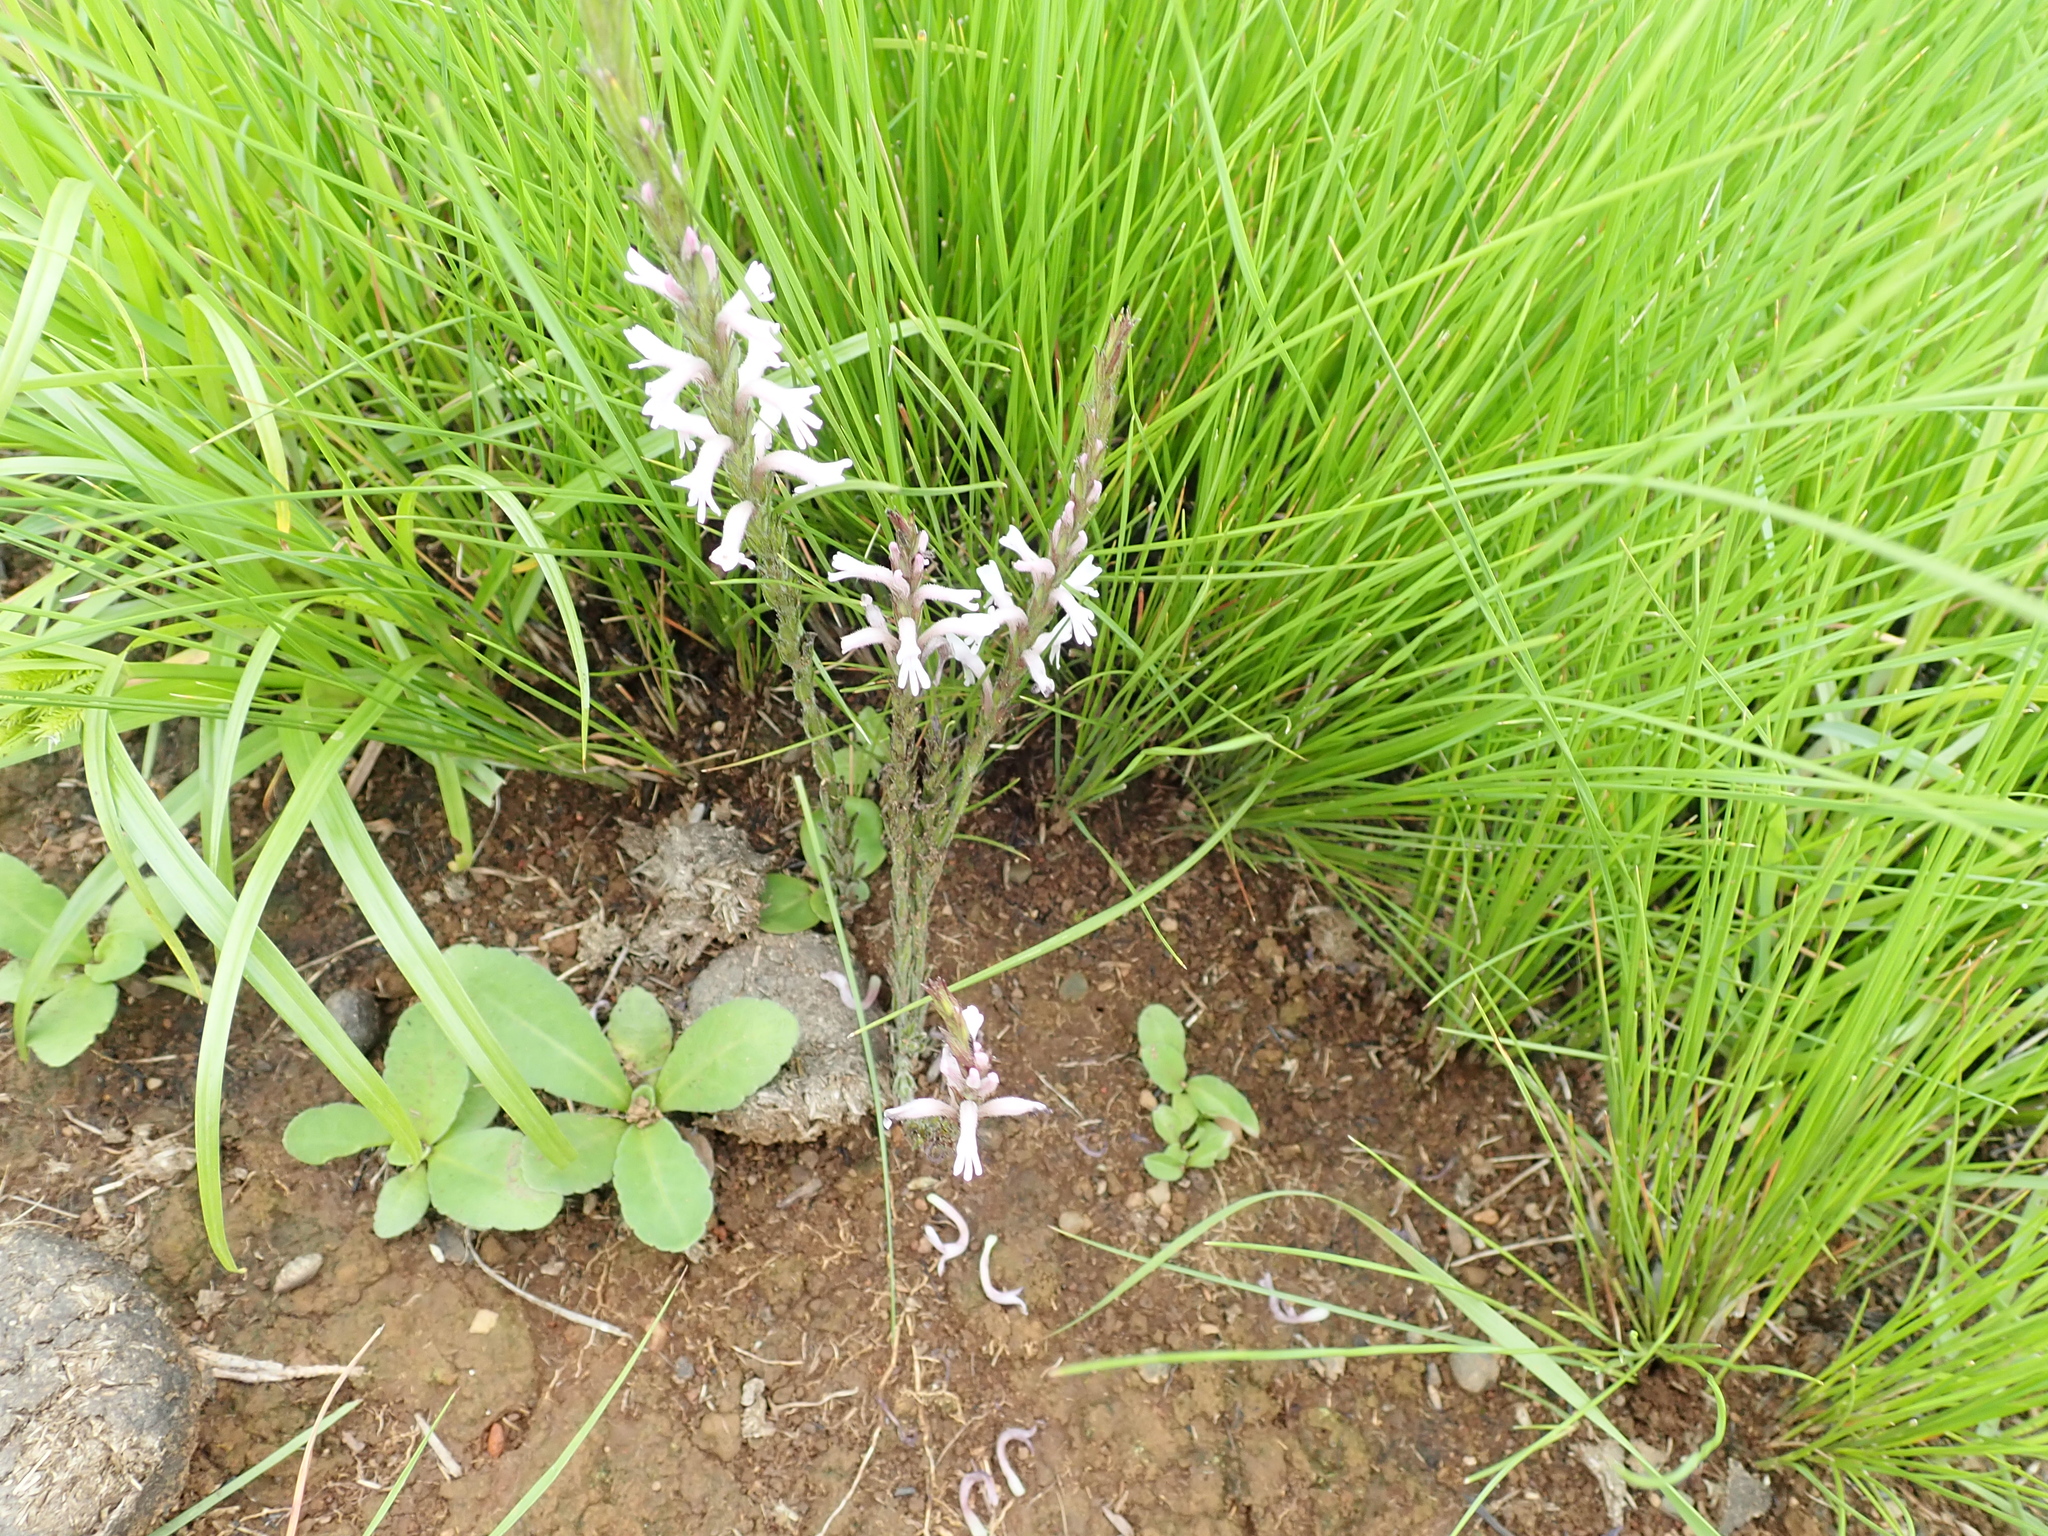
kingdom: Plantae
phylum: Tracheophyta
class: Magnoliopsida
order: Lamiales
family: Orobanchaceae
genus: Striga
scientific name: Striga bilabiata
